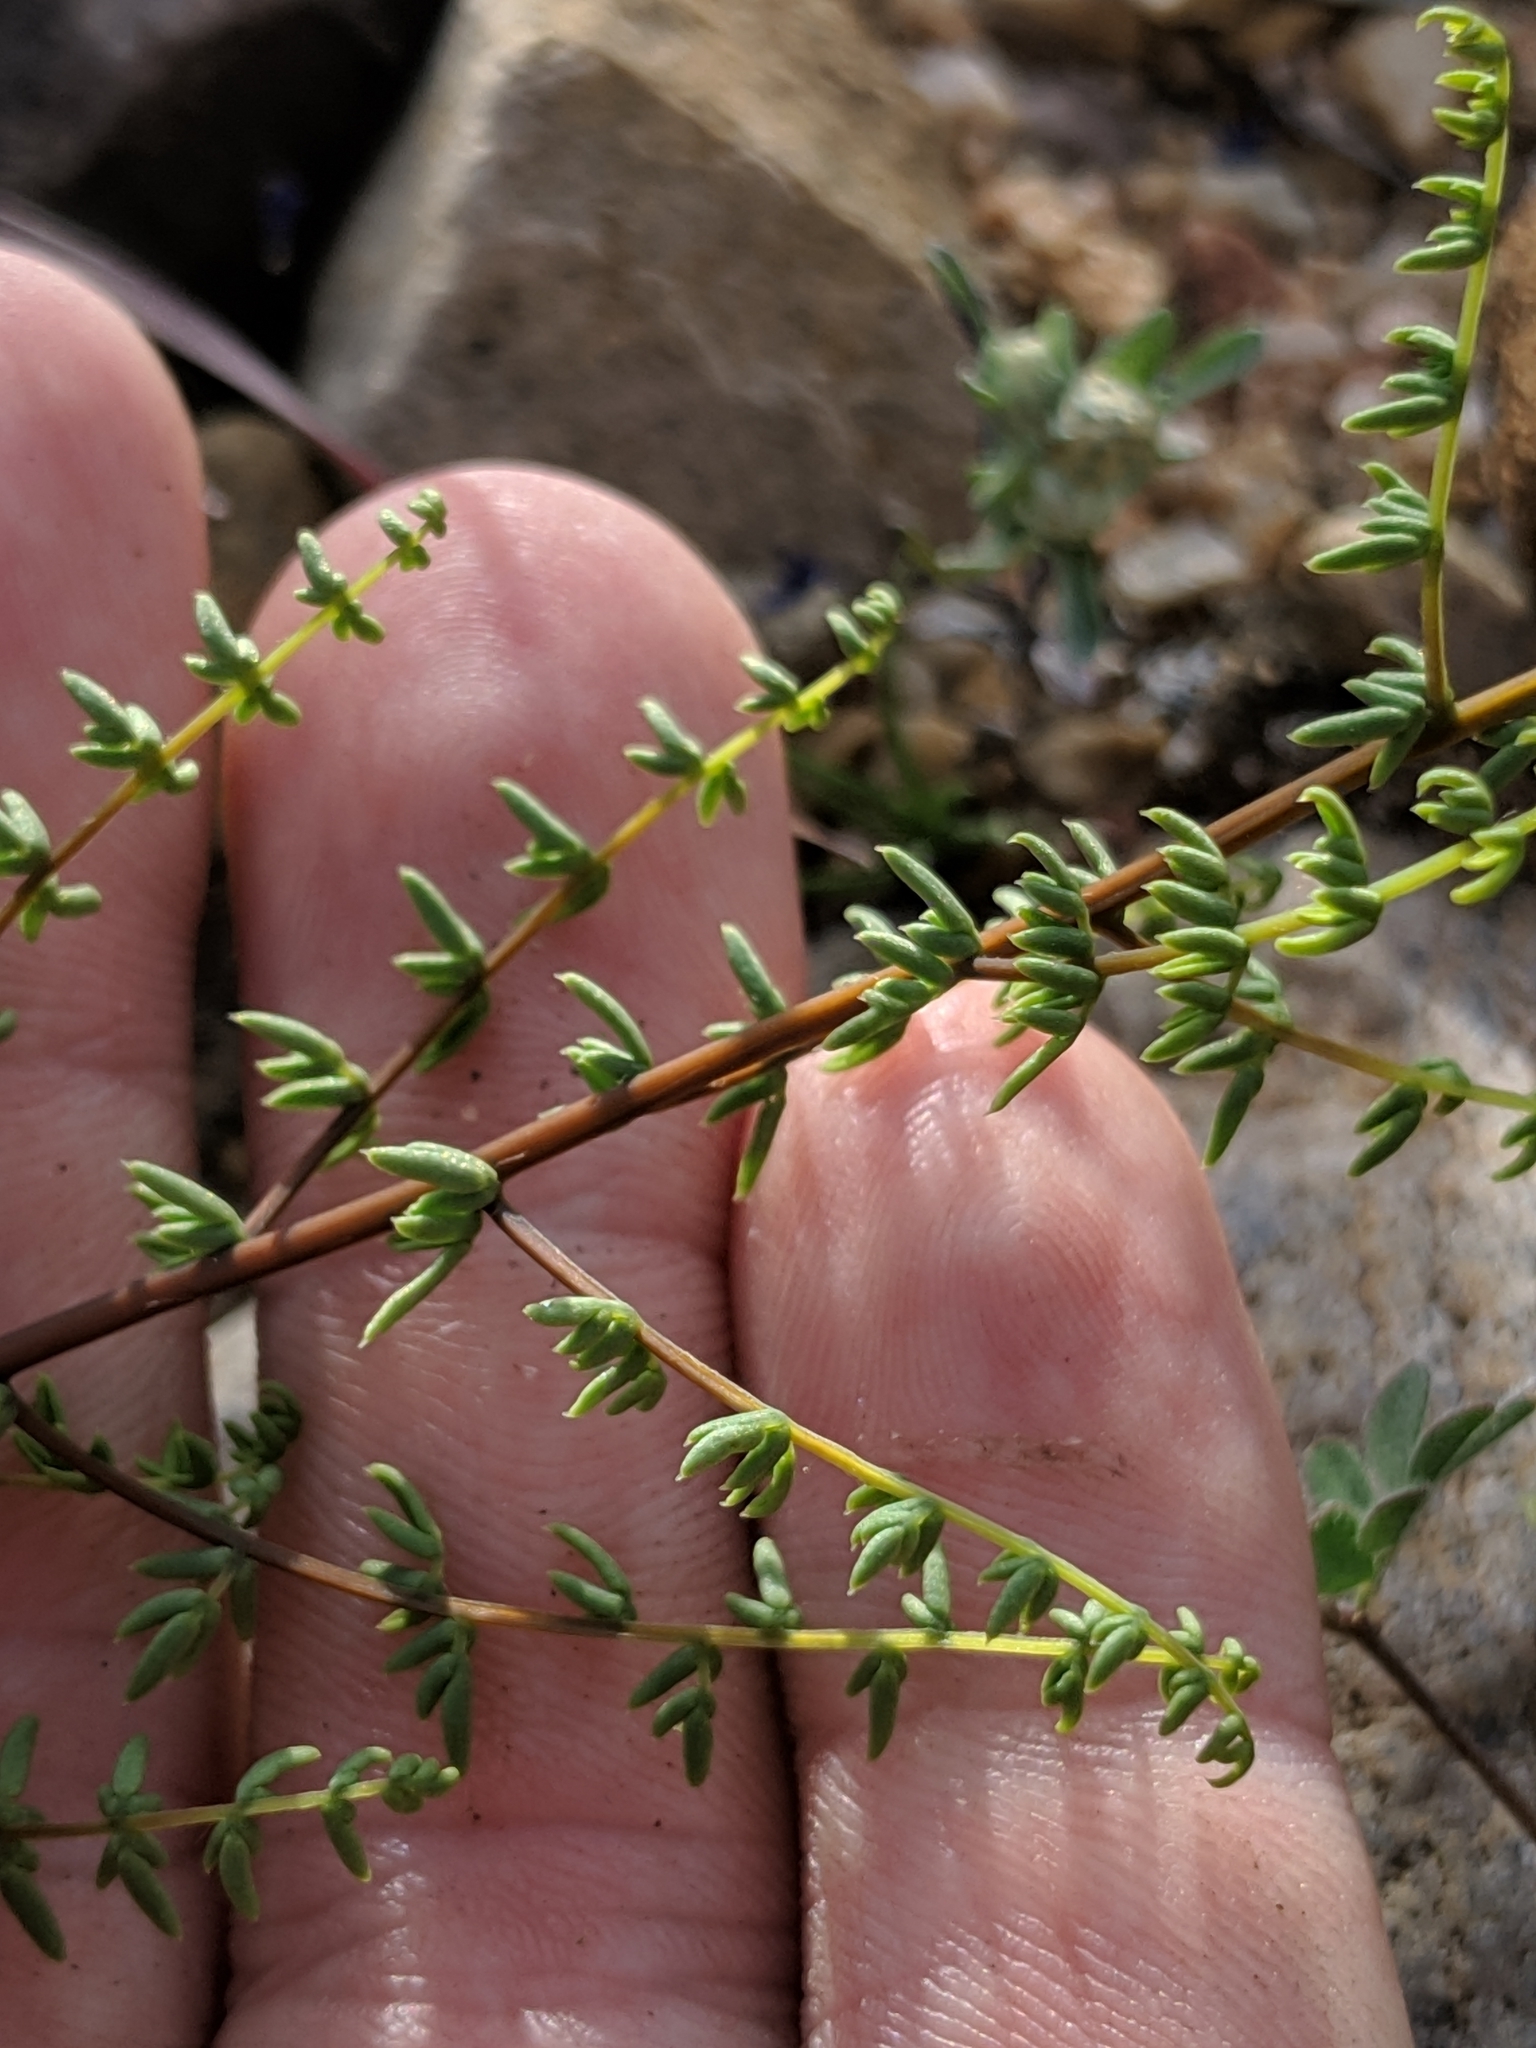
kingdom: Plantae
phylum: Tracheophyta
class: Polypodiopsida
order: Polypodiales
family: Pteridaceae
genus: Pellaea
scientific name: Pellaea mucronata
